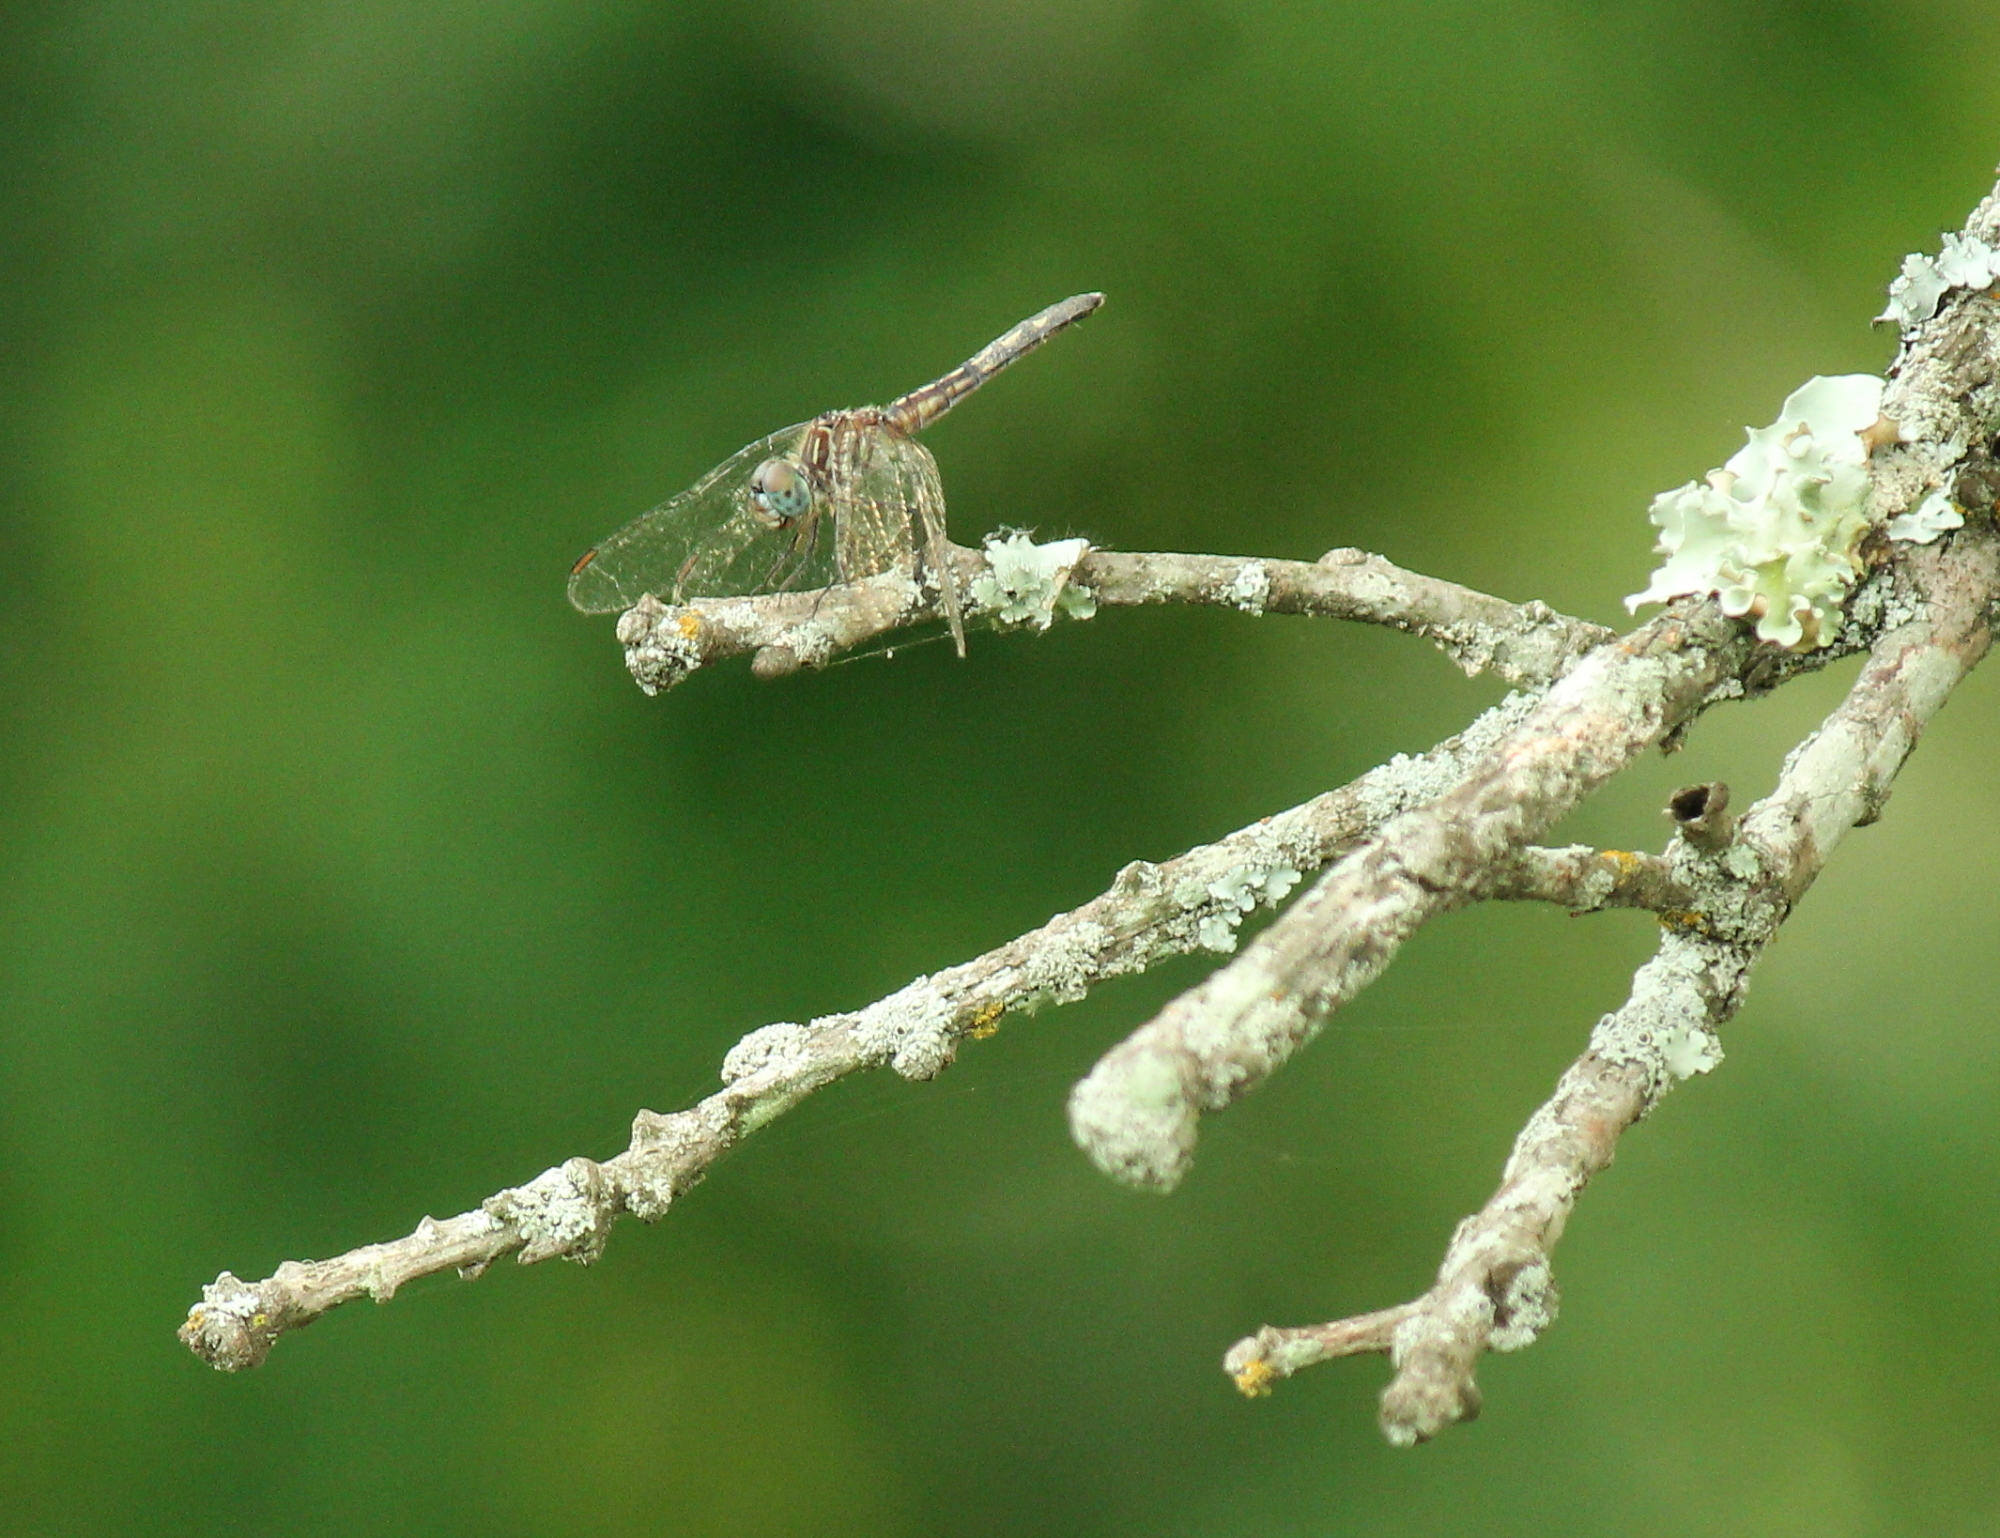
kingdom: Animalia
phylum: Arthropoda
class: Insecta
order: Odonata
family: Libellulidae
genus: Pachydiplax
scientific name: Pachydiplax longipennis
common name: Blue dasher
